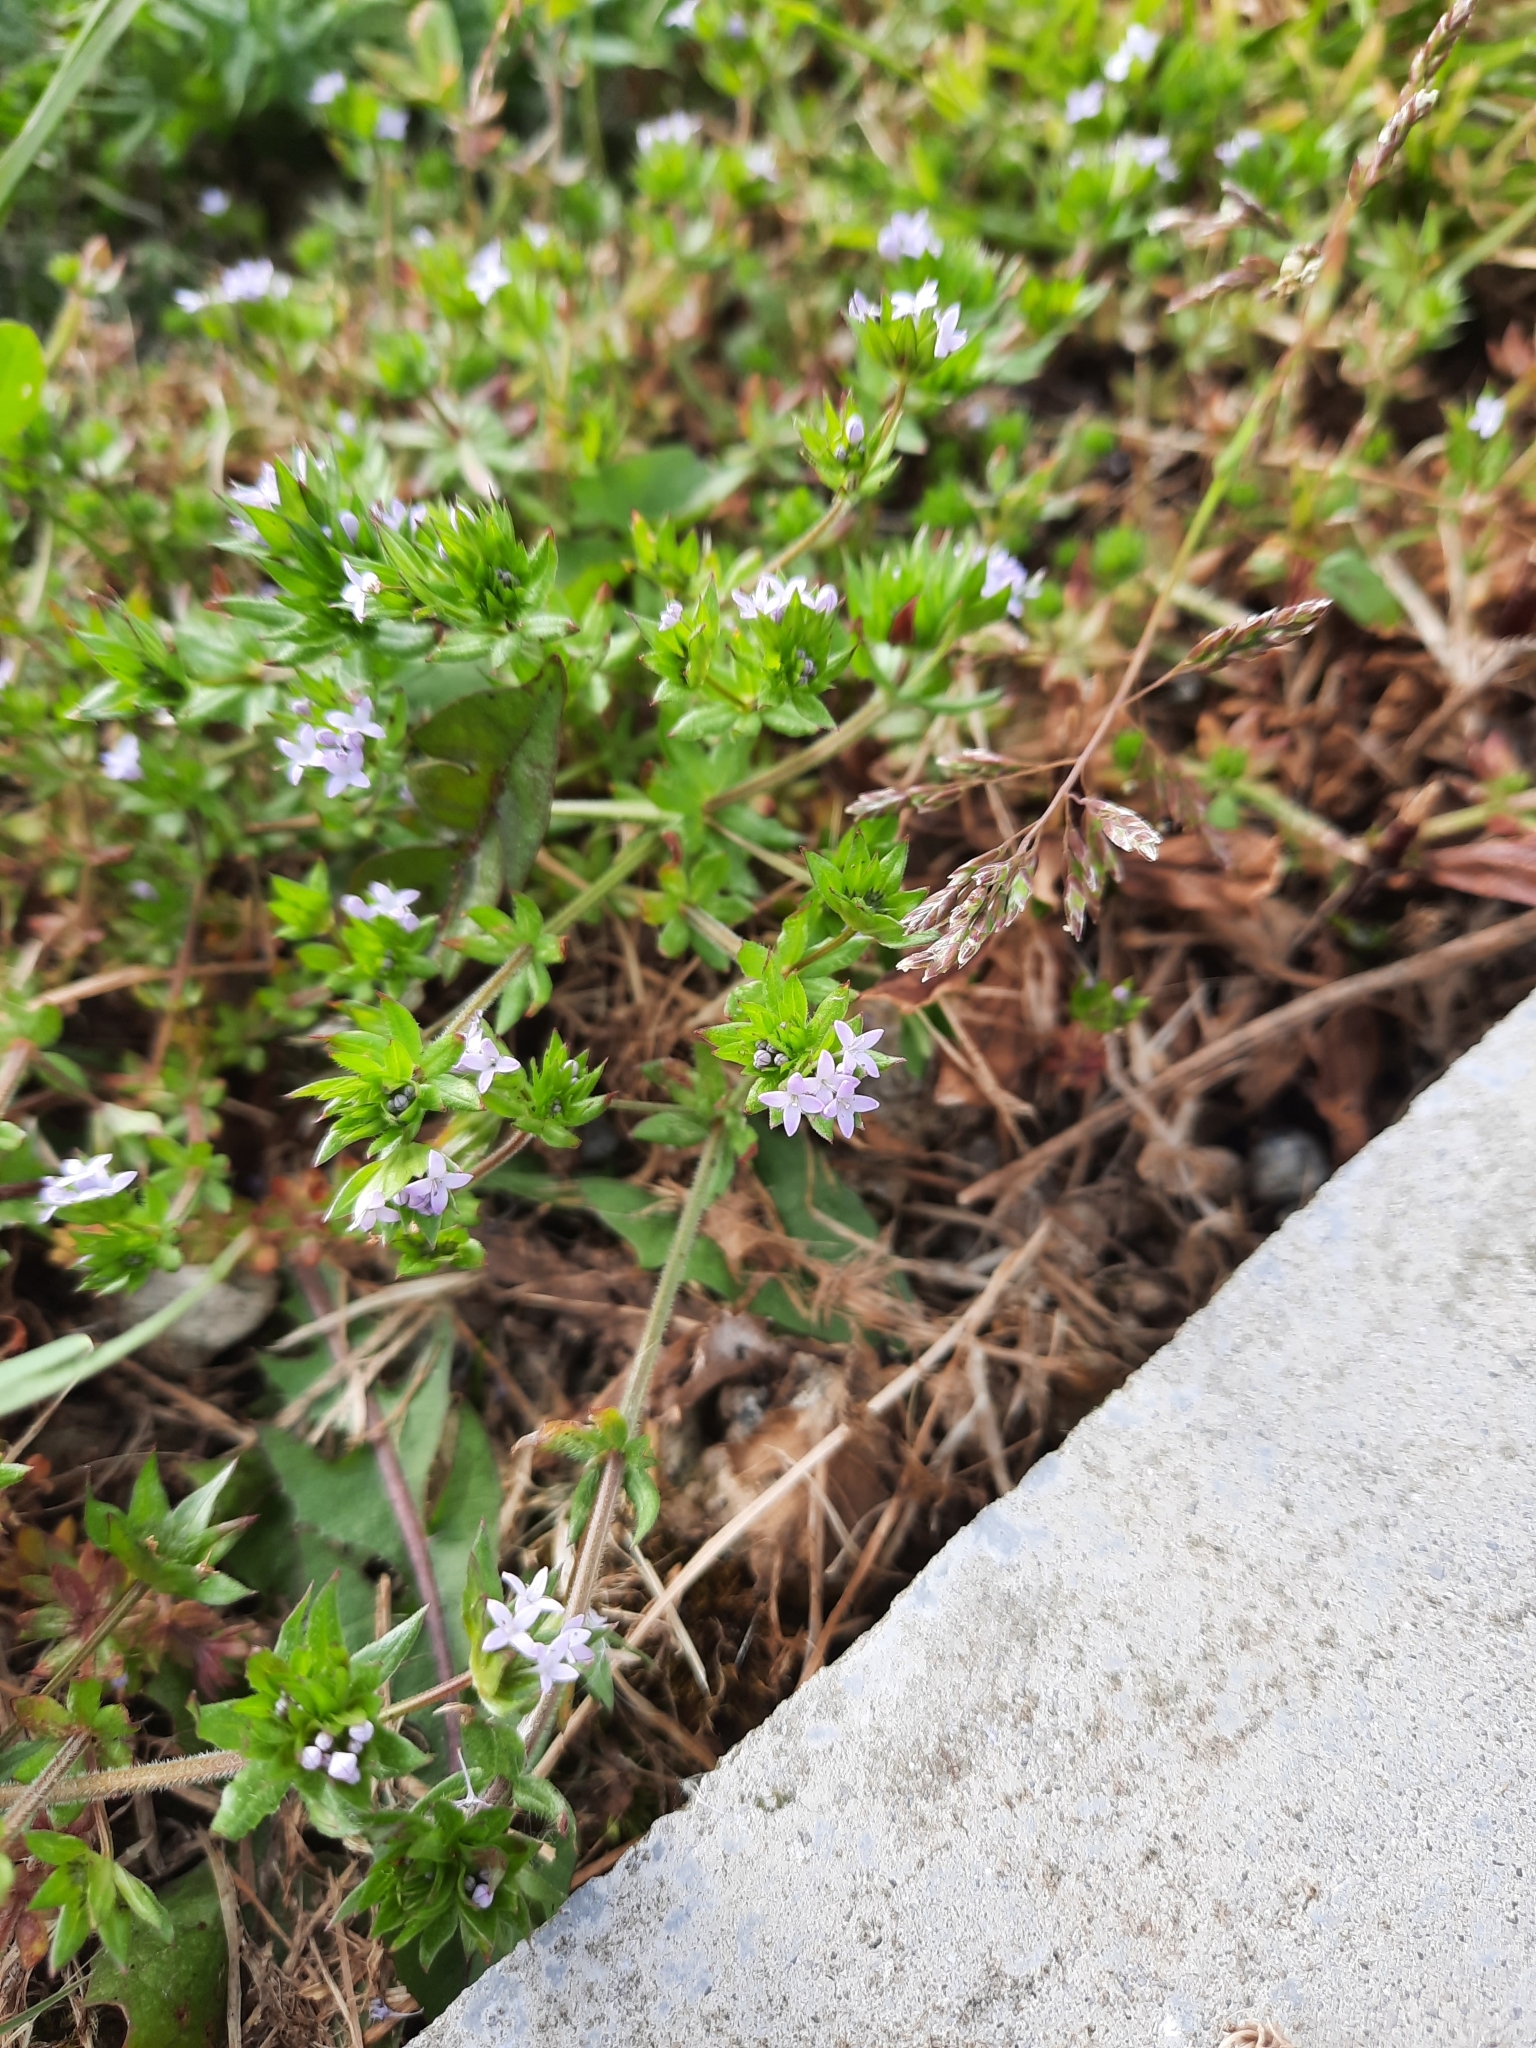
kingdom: Plantae
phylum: Tracheophyta
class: Magnoliopsida
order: Gentianales
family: Rubiaceae
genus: Sherardia
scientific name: Sherardia arvensis
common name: Field madder
